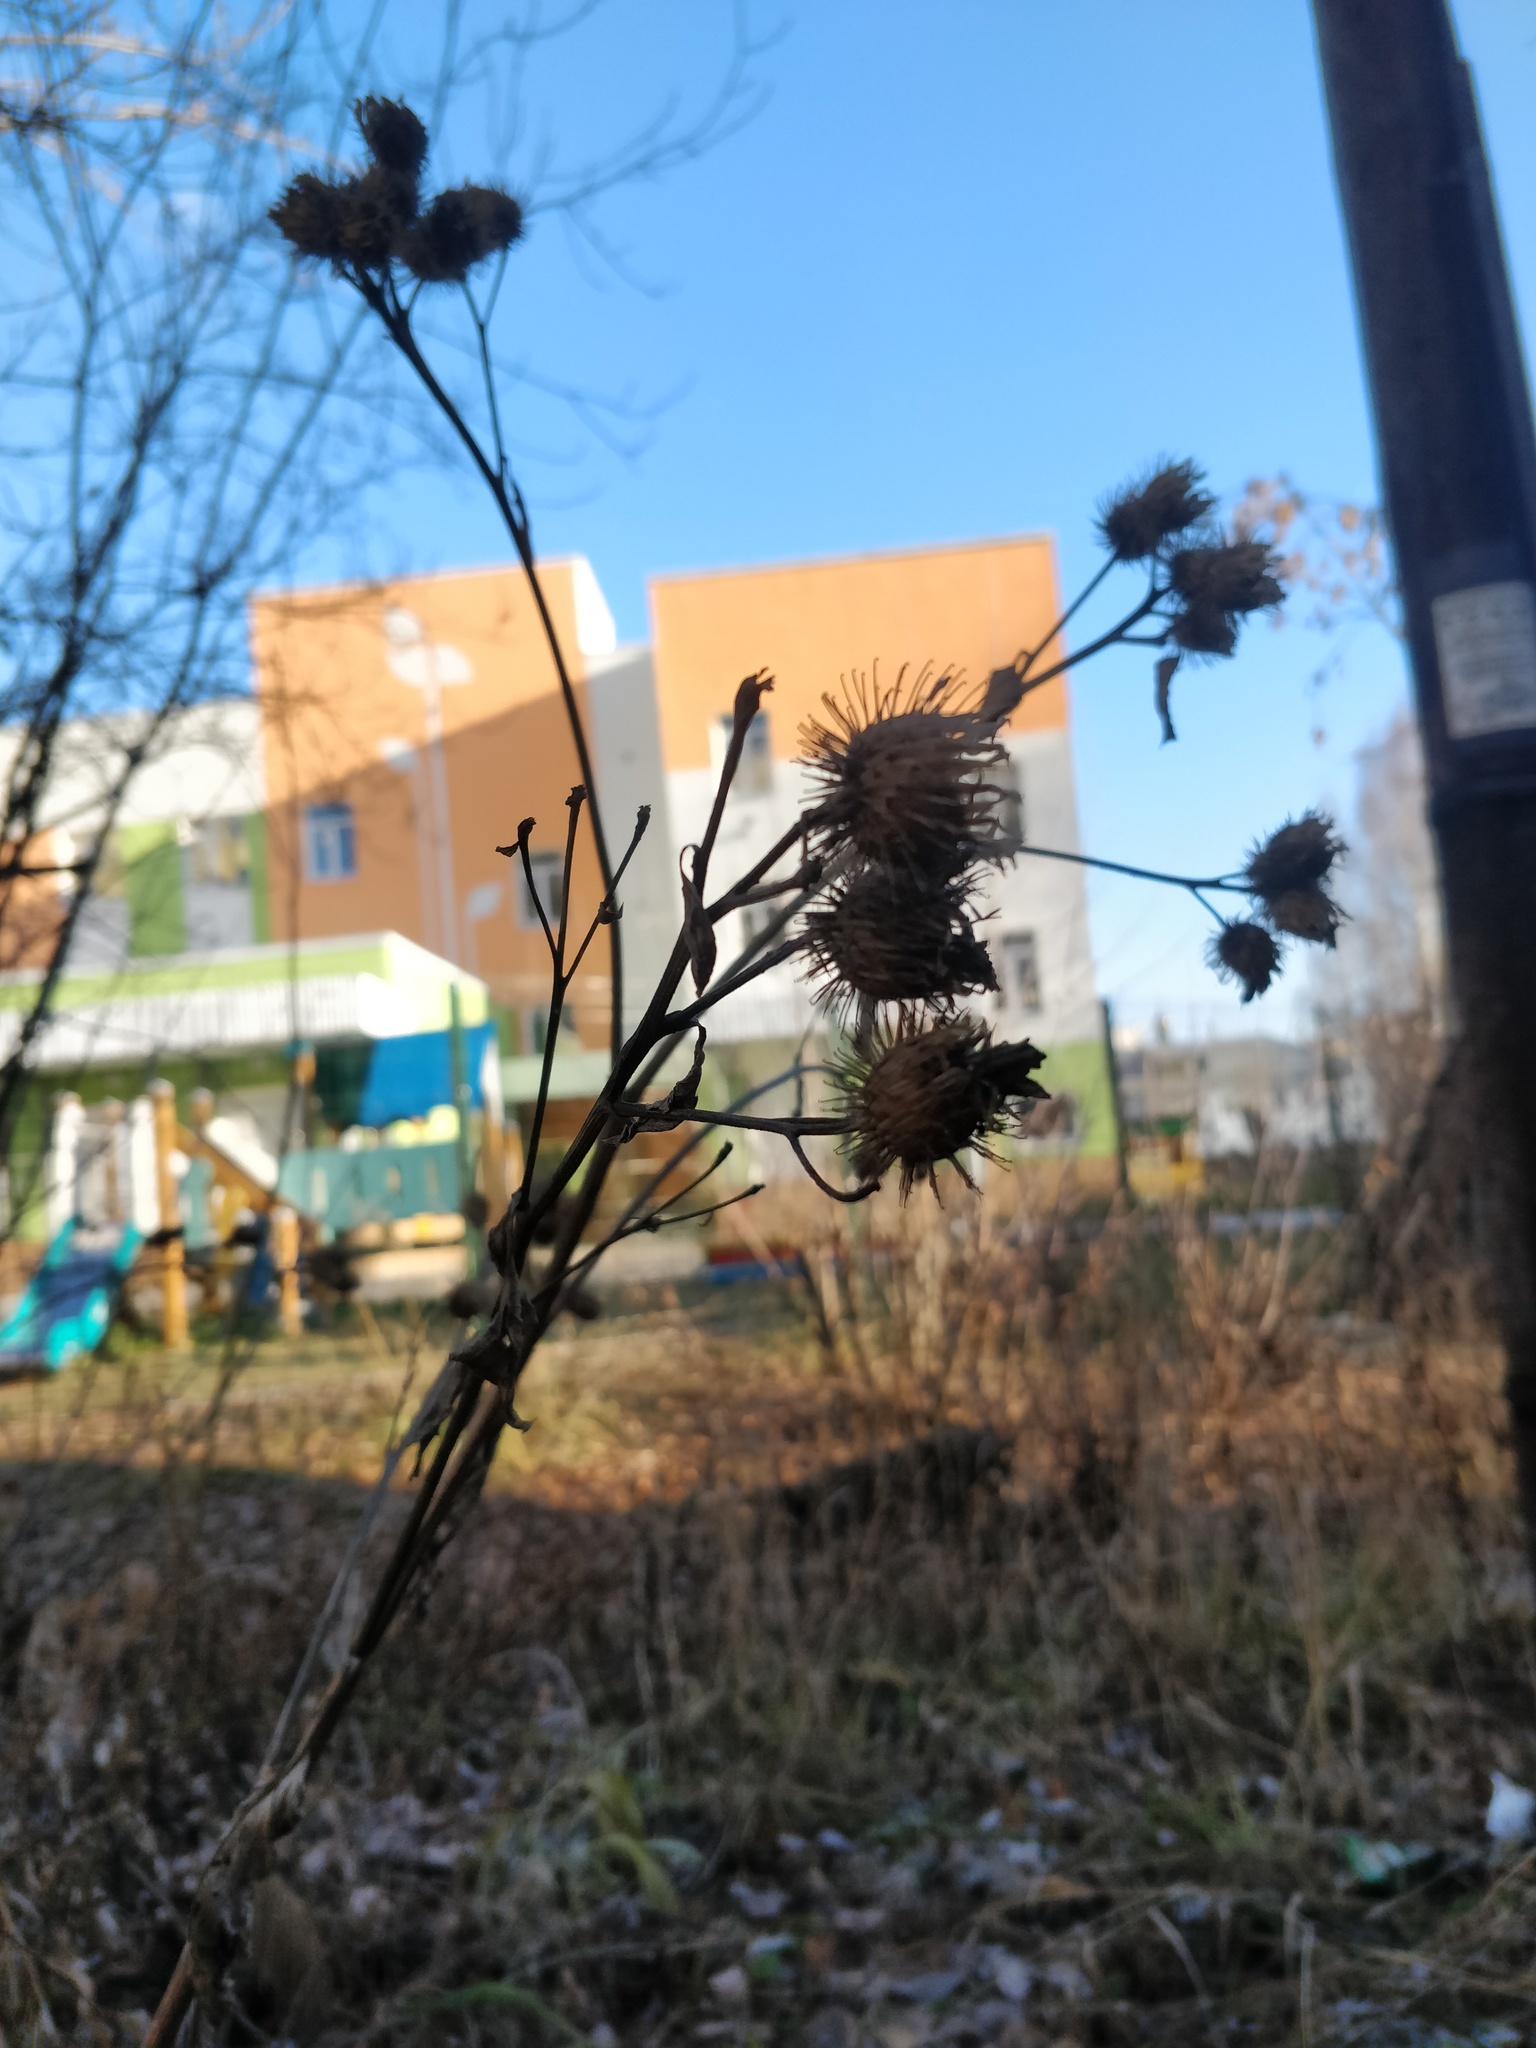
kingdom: Plantae
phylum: Tracheophyta
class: Magnoliopsida
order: Asterales
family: Asteraceae
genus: Arctium
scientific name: Arctium tomentosum
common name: Woolly burdock
